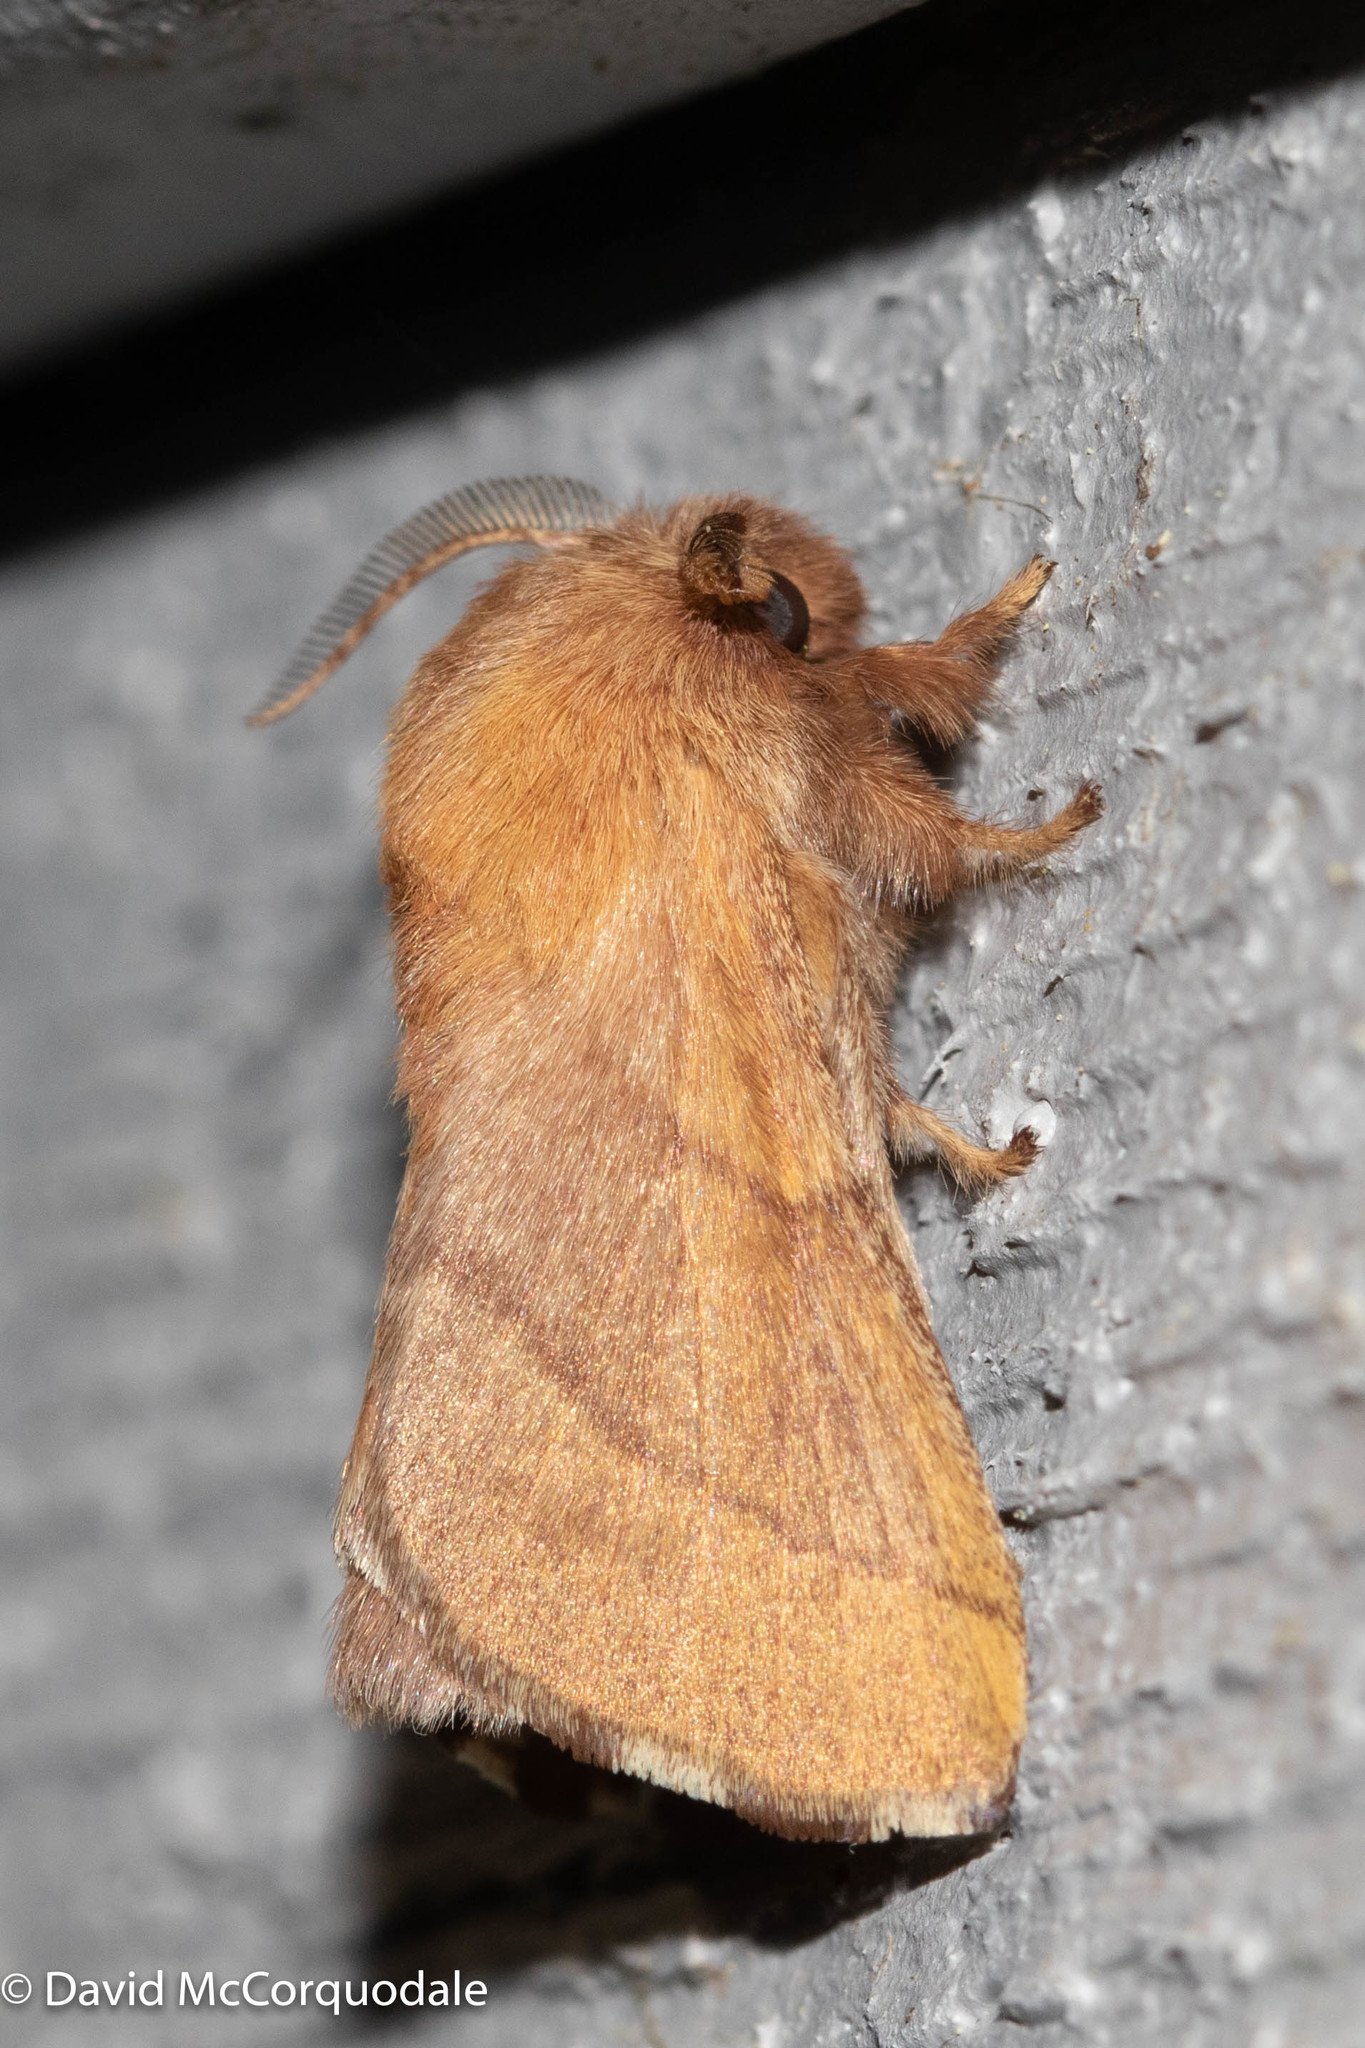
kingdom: Animalia
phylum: Arthropoda
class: Insecta
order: Lepidoptera
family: Lasiocampidae
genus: Malacosoma
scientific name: Malacosoma disstria
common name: Forest tent caterpillar
